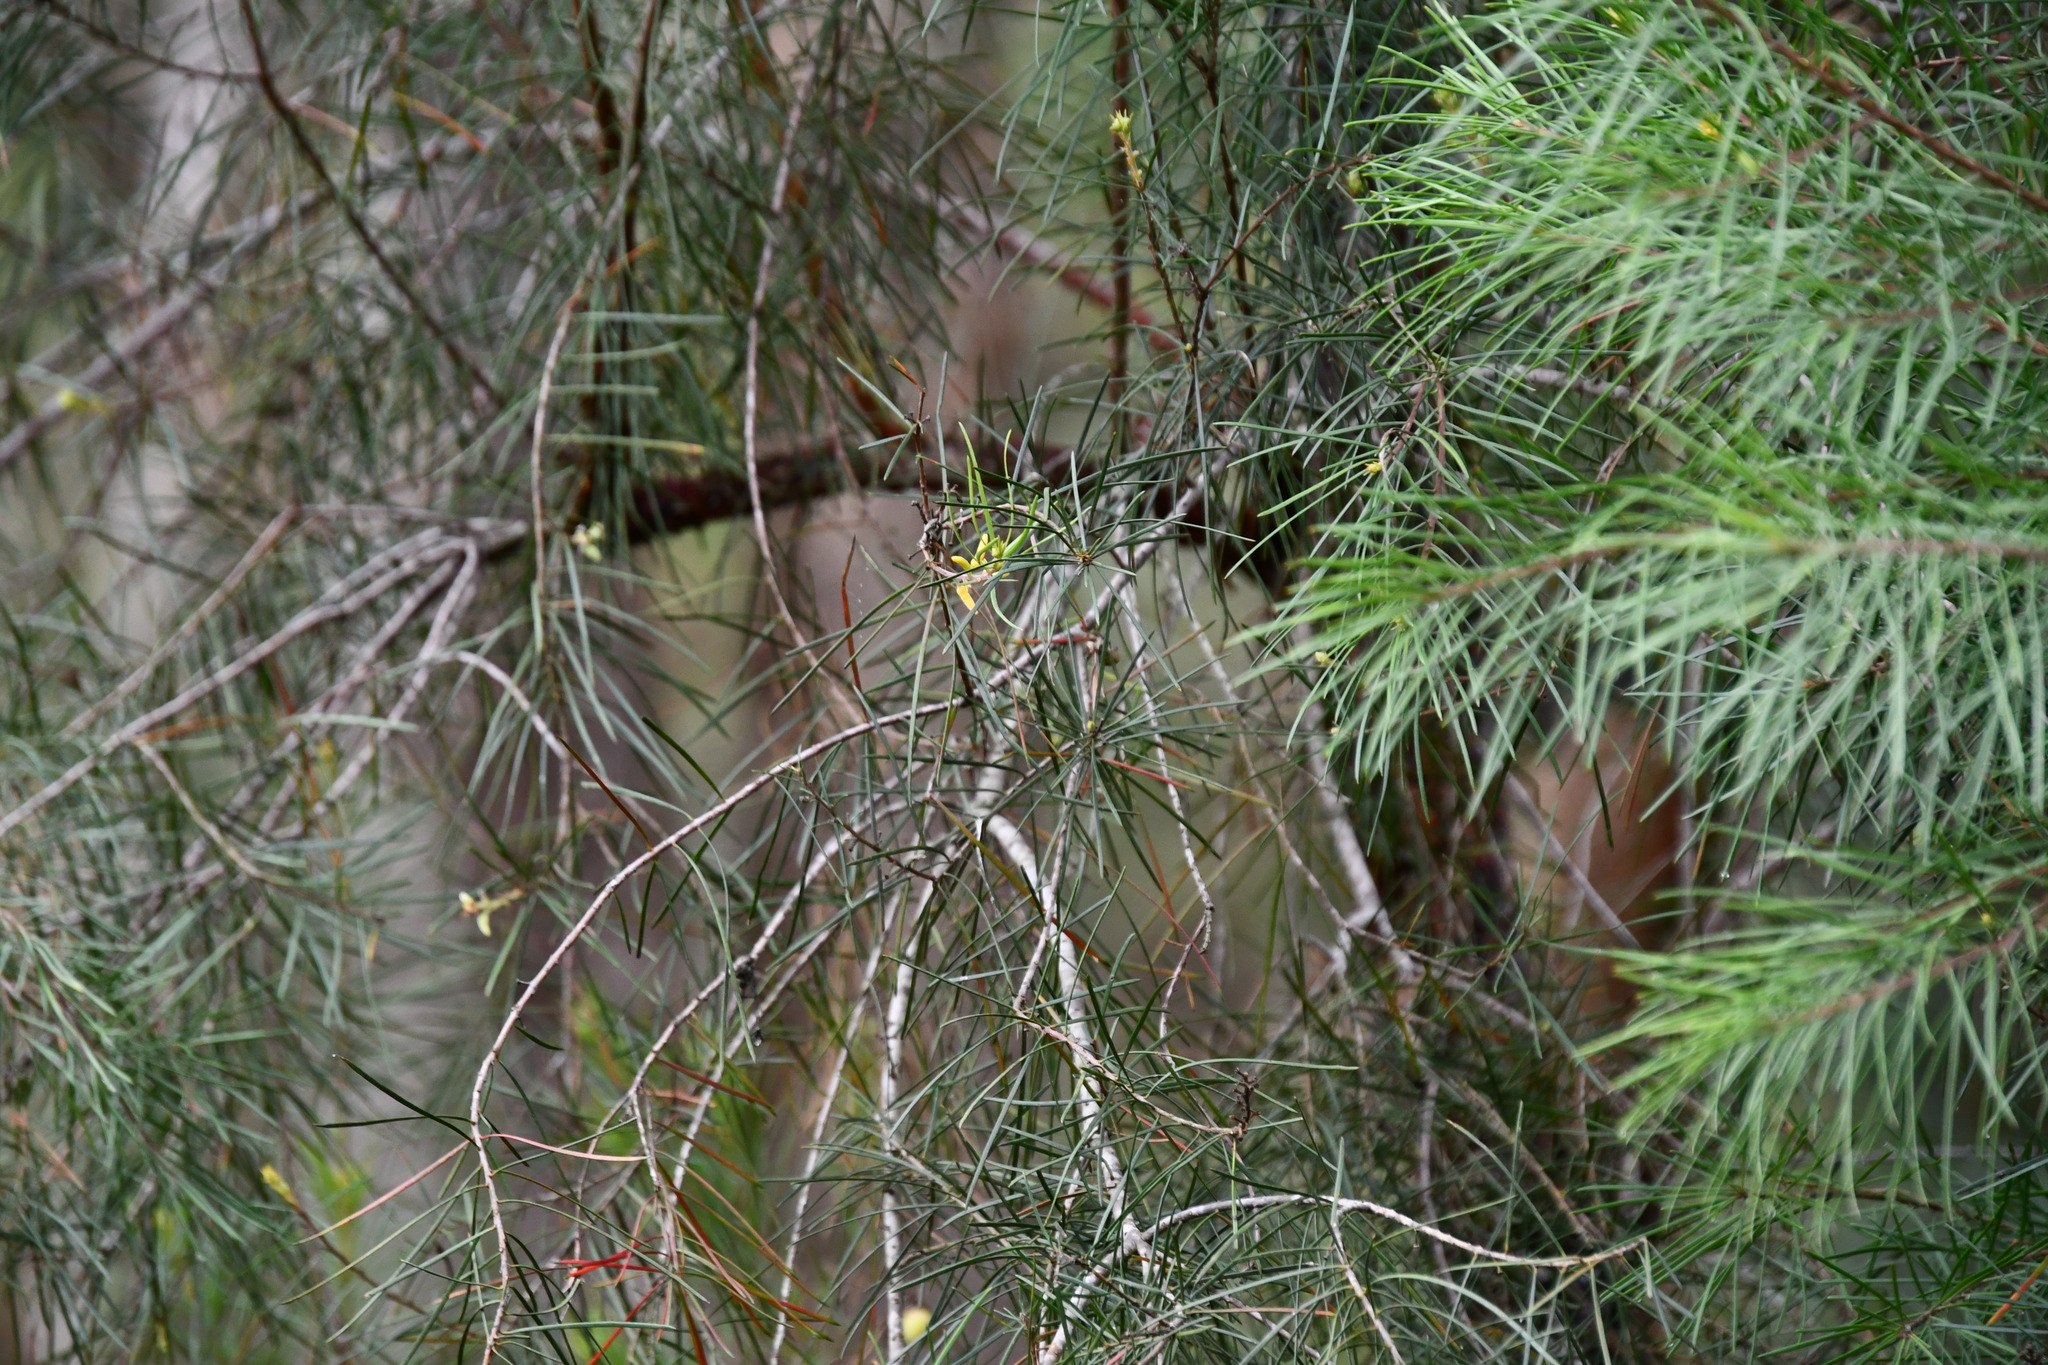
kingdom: Plantae
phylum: Tracheophyta
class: Magnoliopsida
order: Proteales
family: Proteaceae
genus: Persoonia
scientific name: Persoonia linearis
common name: Narrow-leaf geebung
